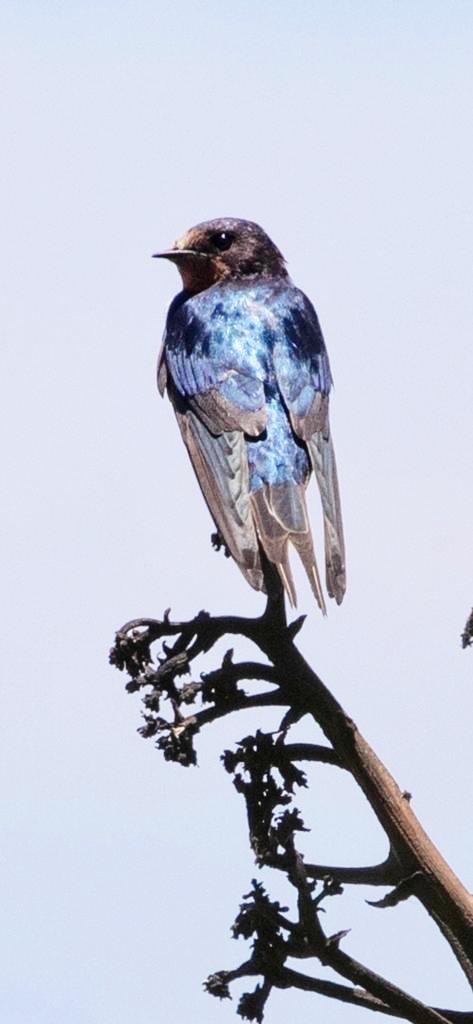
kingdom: Animalia
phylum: Chordata
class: Aves
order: Passeriformes
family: Hirundinidae
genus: Hirundo
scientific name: Hirundo rustica
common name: Barn swallow
